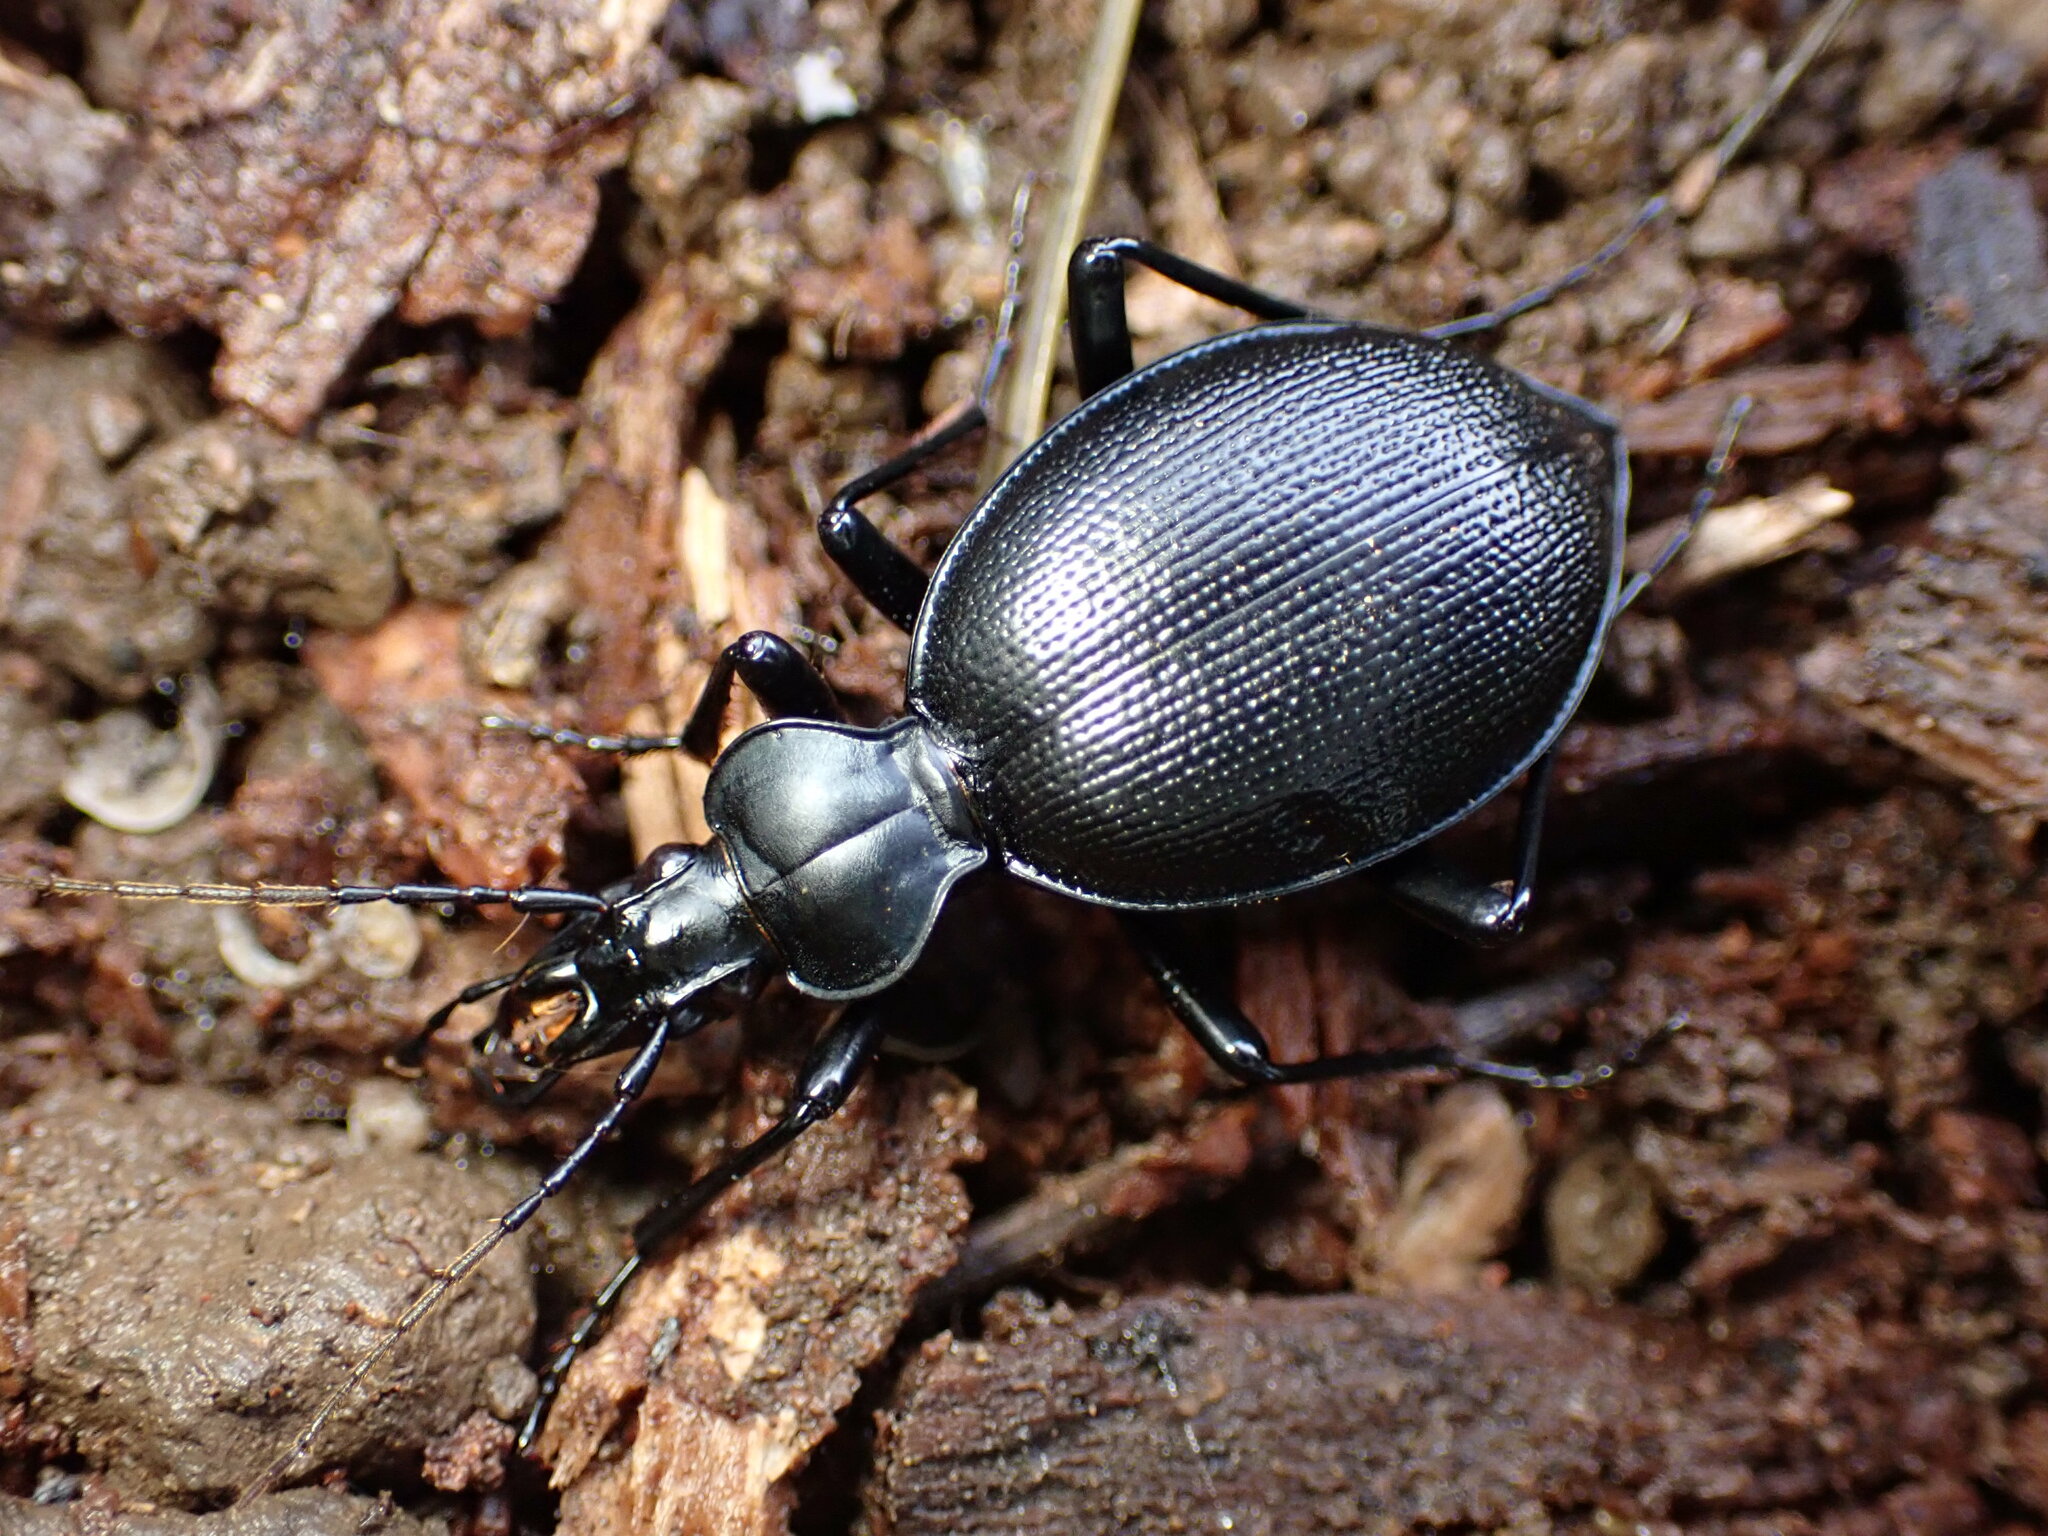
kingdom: Animalia
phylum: Arthropoda
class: Insecta
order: Coleoptera
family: Carabidae
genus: Scaphinotus
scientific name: Scaphinotus punctatus
